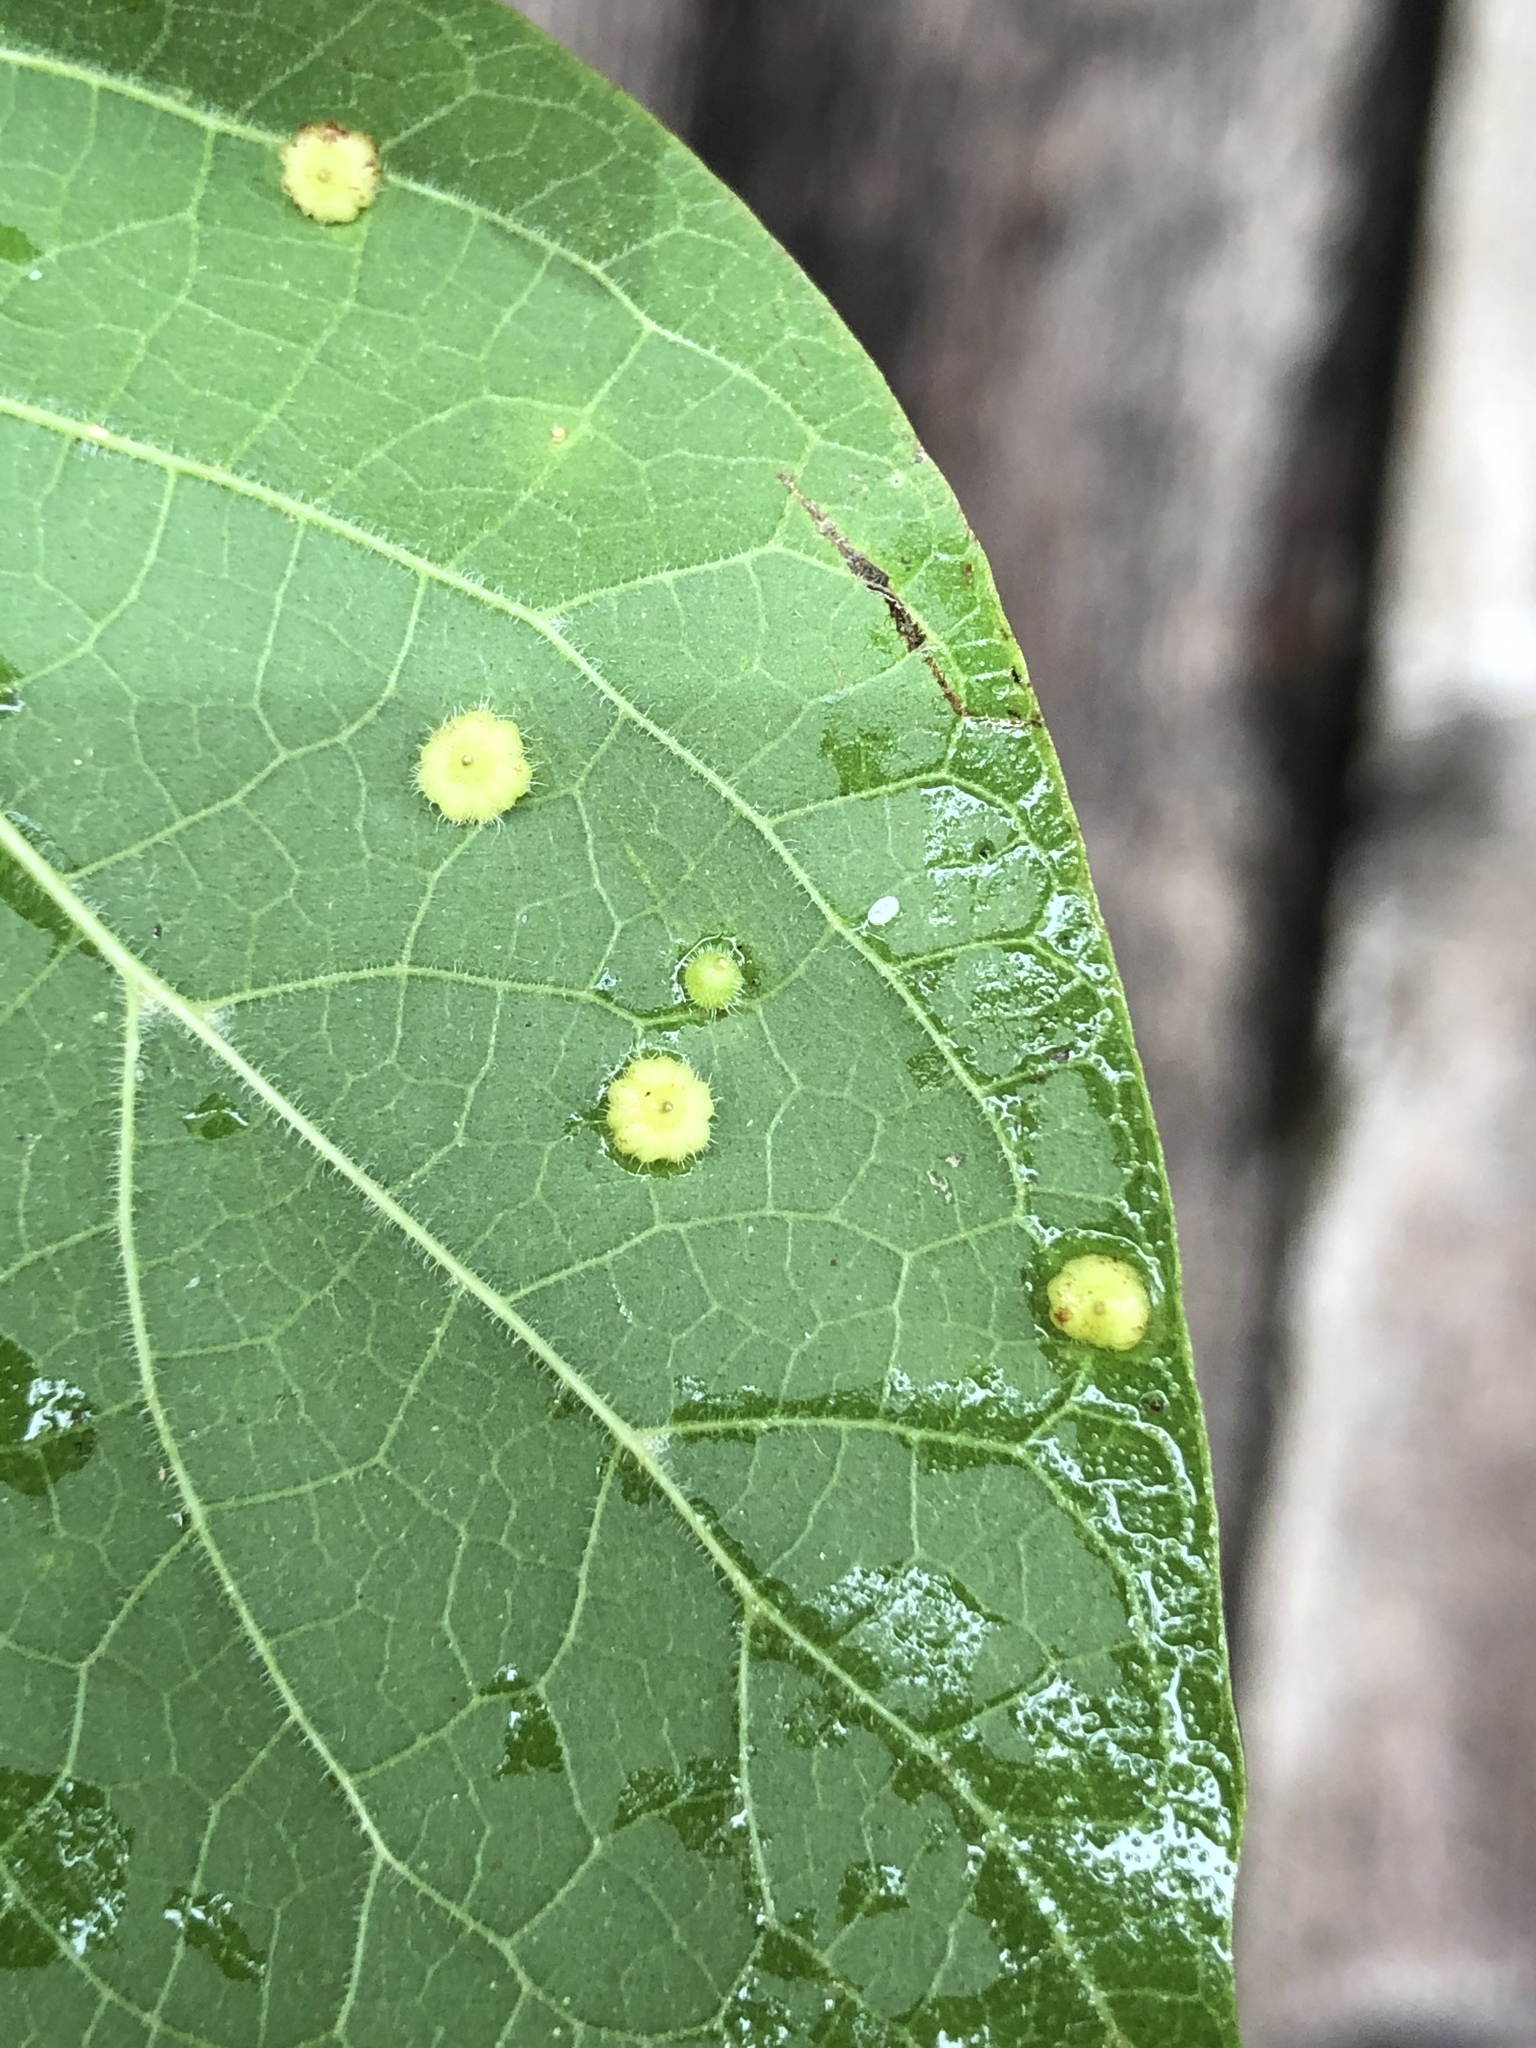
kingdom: Animalia
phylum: Arthropoda
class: Insecta
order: Diptera
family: Cecidomyiidae
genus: Celticecis
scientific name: Celticecis capsularis
